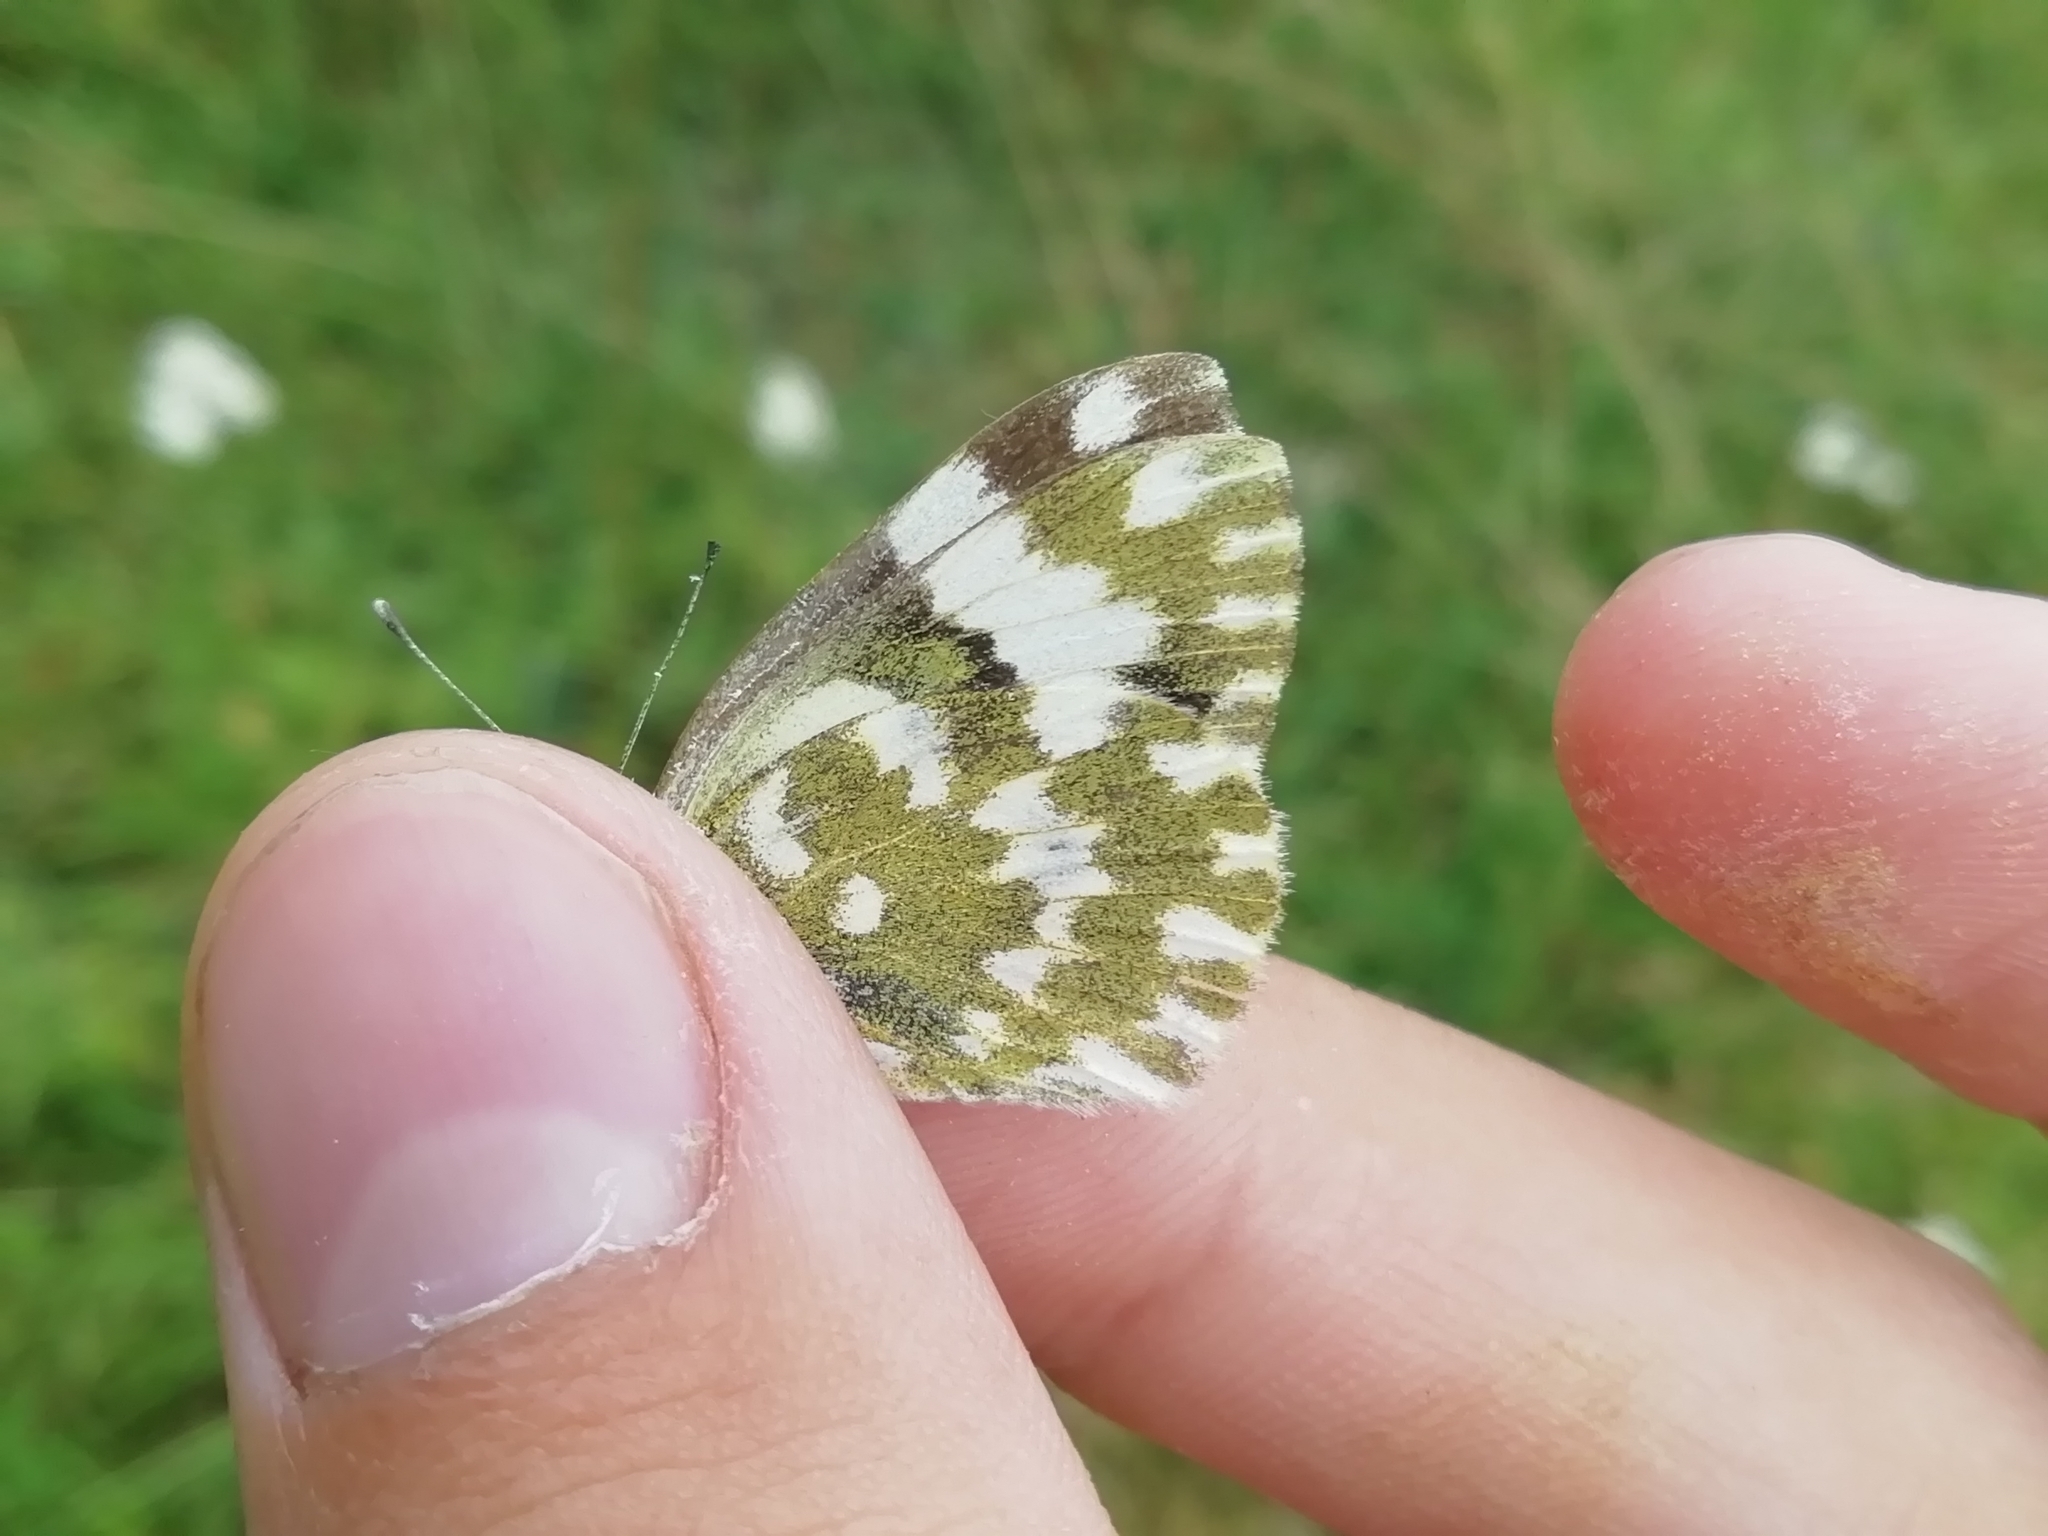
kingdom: Animalia
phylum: Arthropoda
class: Insecta
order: Lepidoptera
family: Pieridae
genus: Pontia
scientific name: Pontia edusa
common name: Eastern bath white
